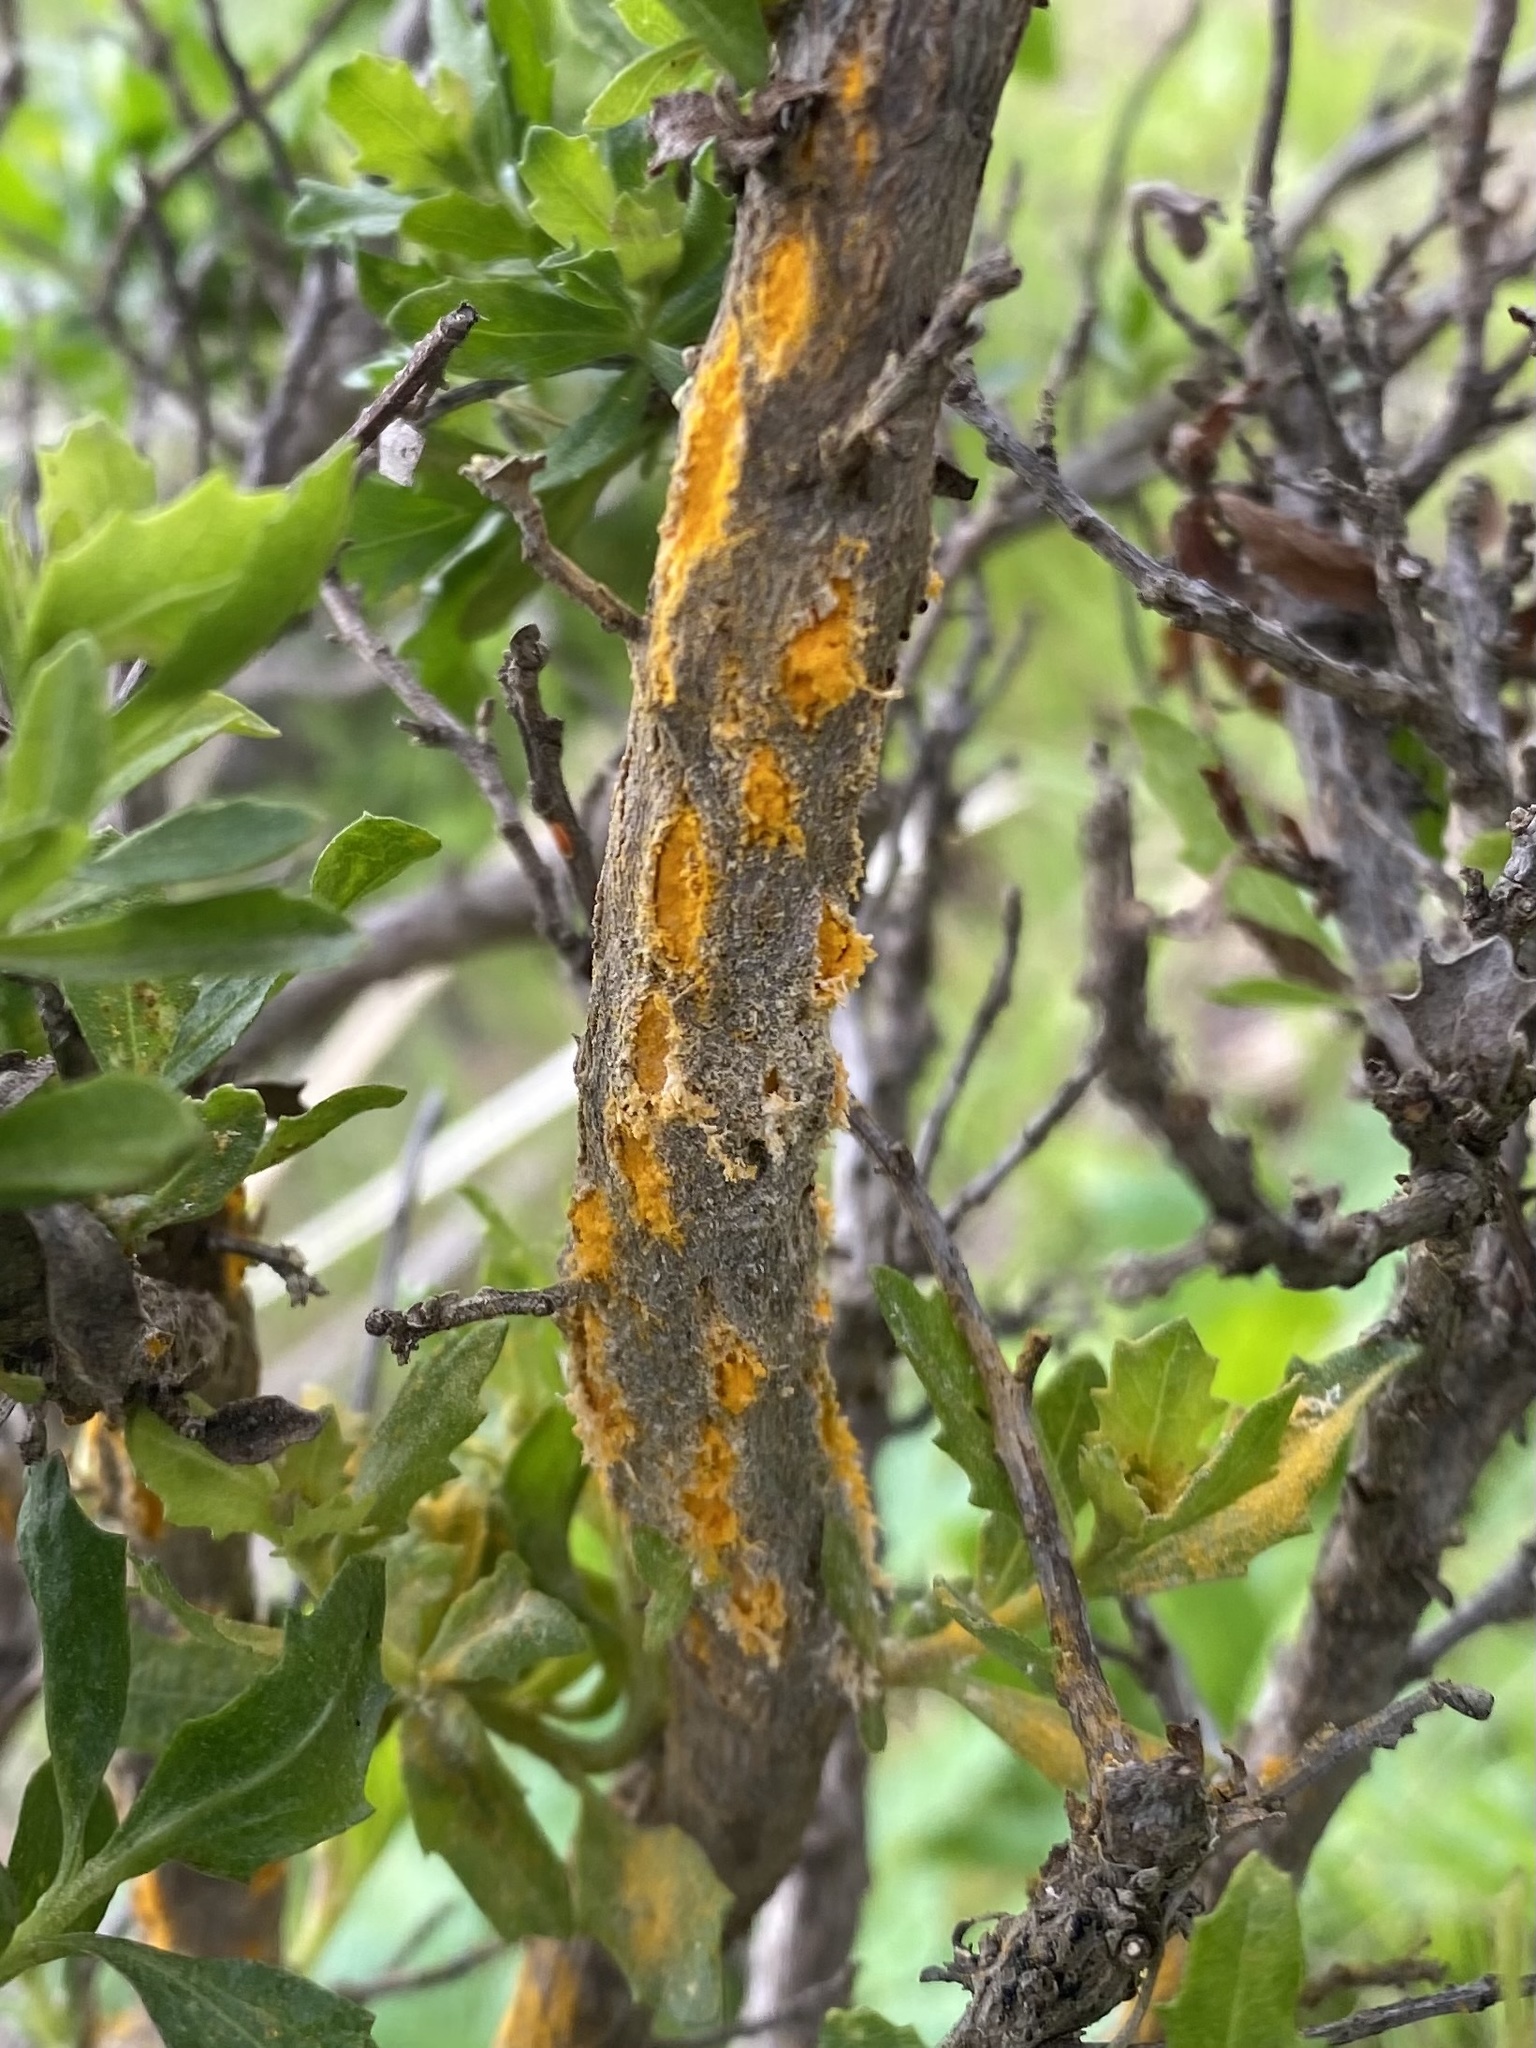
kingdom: Fungi
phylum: Basidiomycota
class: Pucciniomycetes
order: Pucciniales
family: Pucciniaceae
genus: Eriosporangium
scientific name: Eriosporangium evadens
